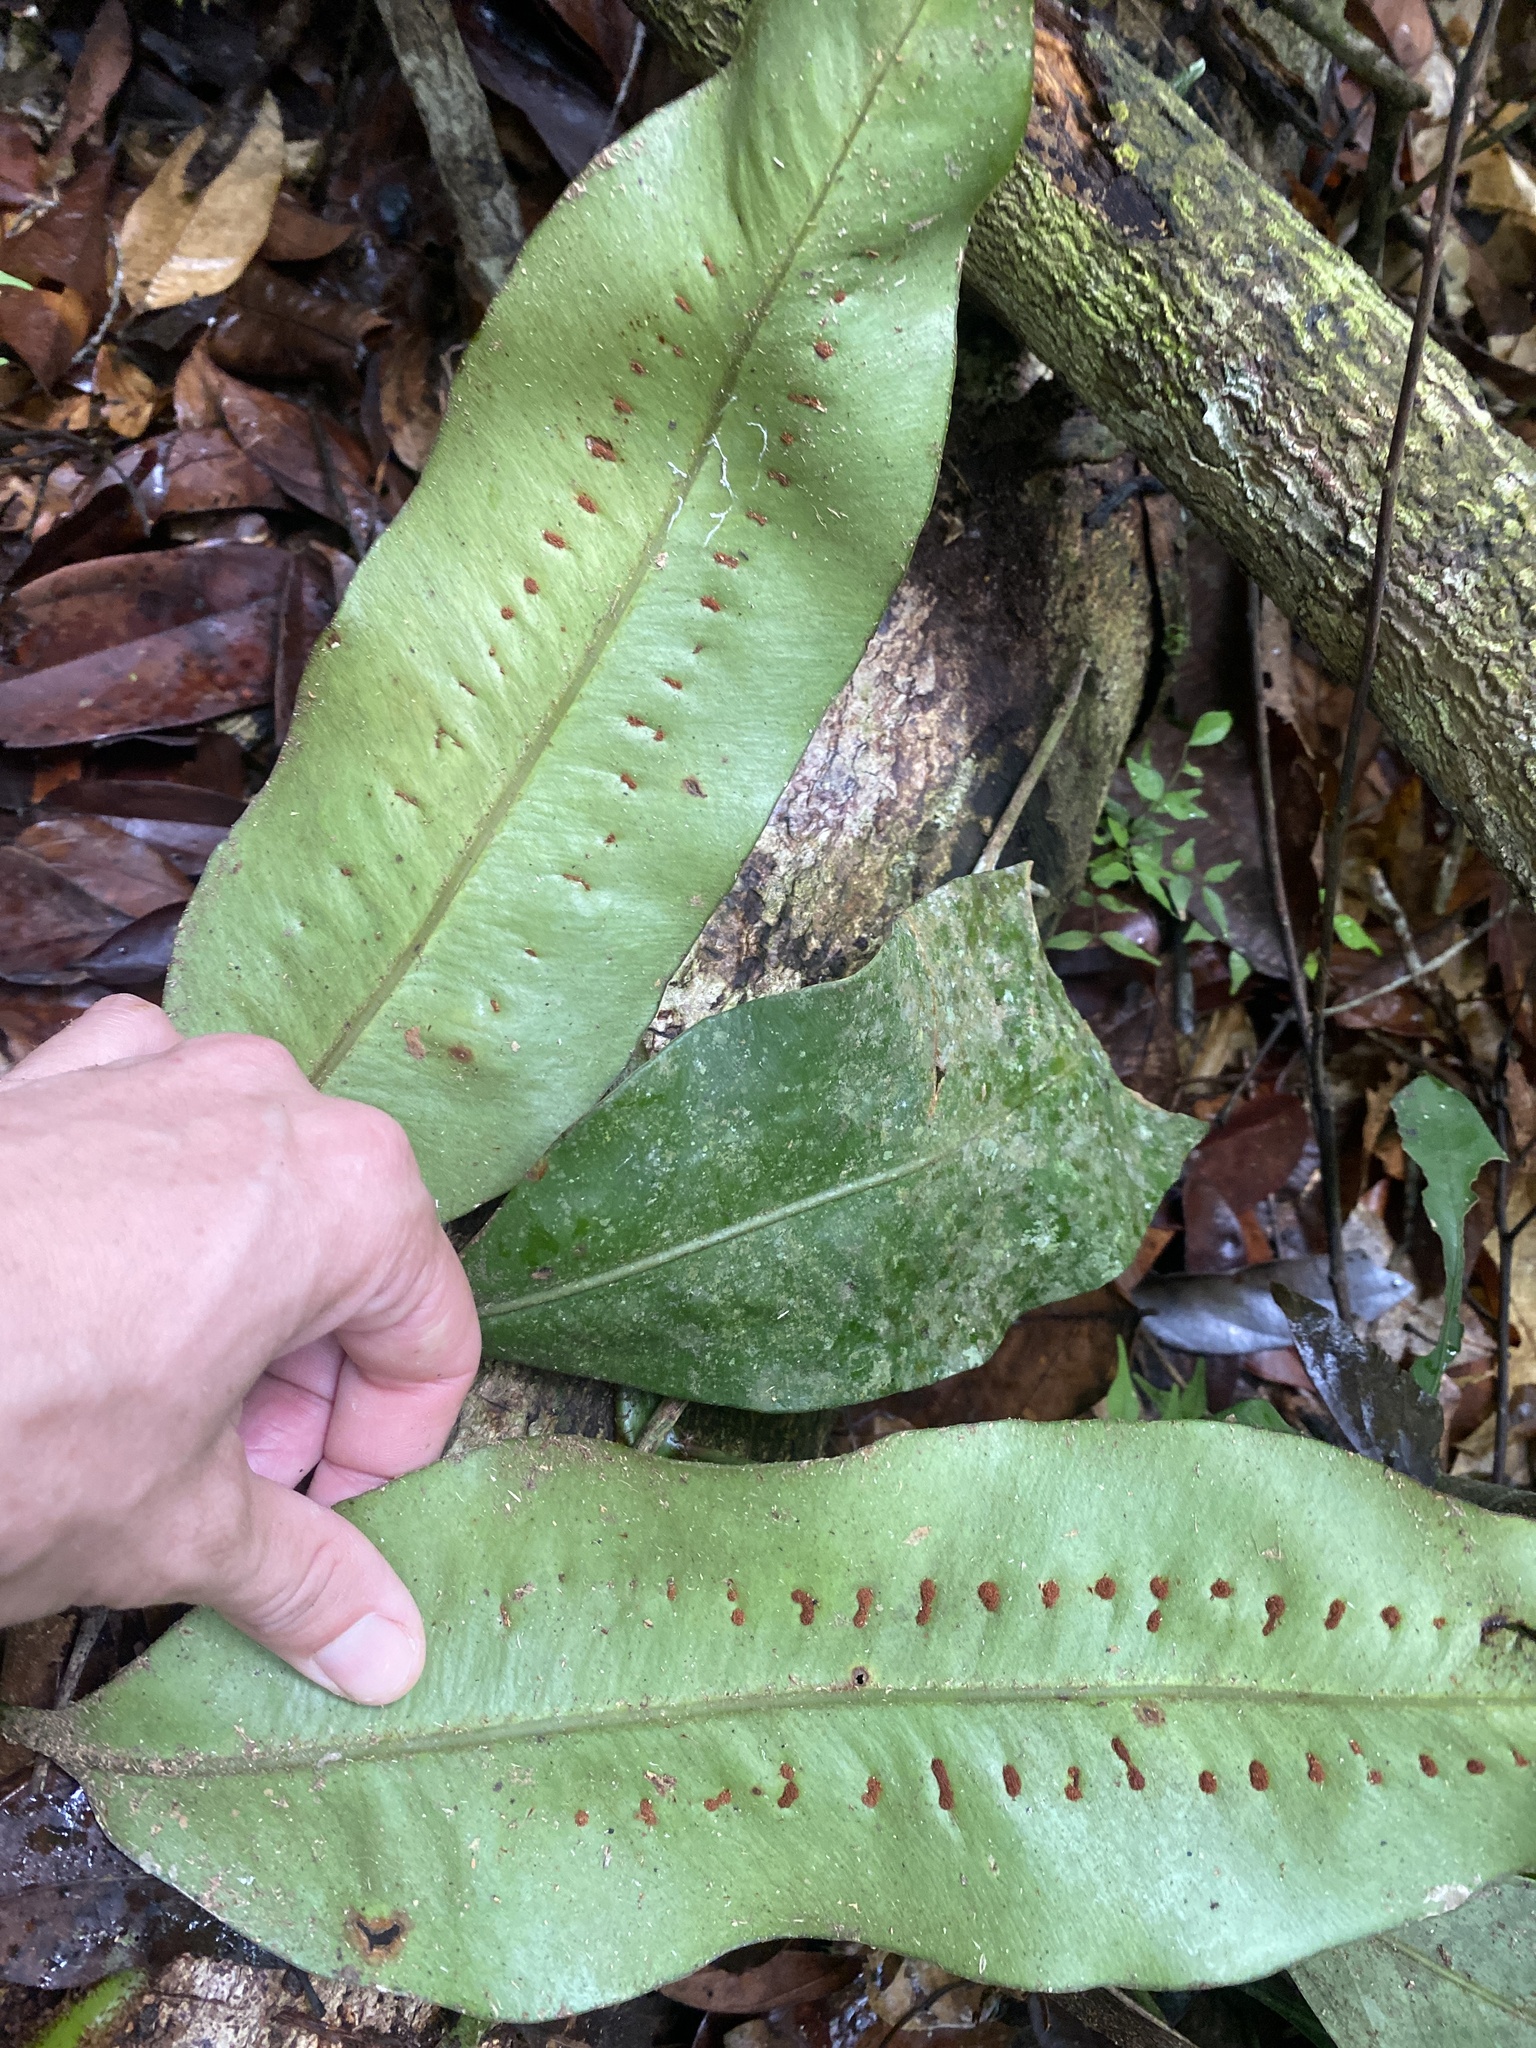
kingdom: Plantae
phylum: Tracheophyta
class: Polypodiopsida
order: Polypodiales
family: Polypodiaceae
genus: Microgramma
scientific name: Microgramma megalophylla
